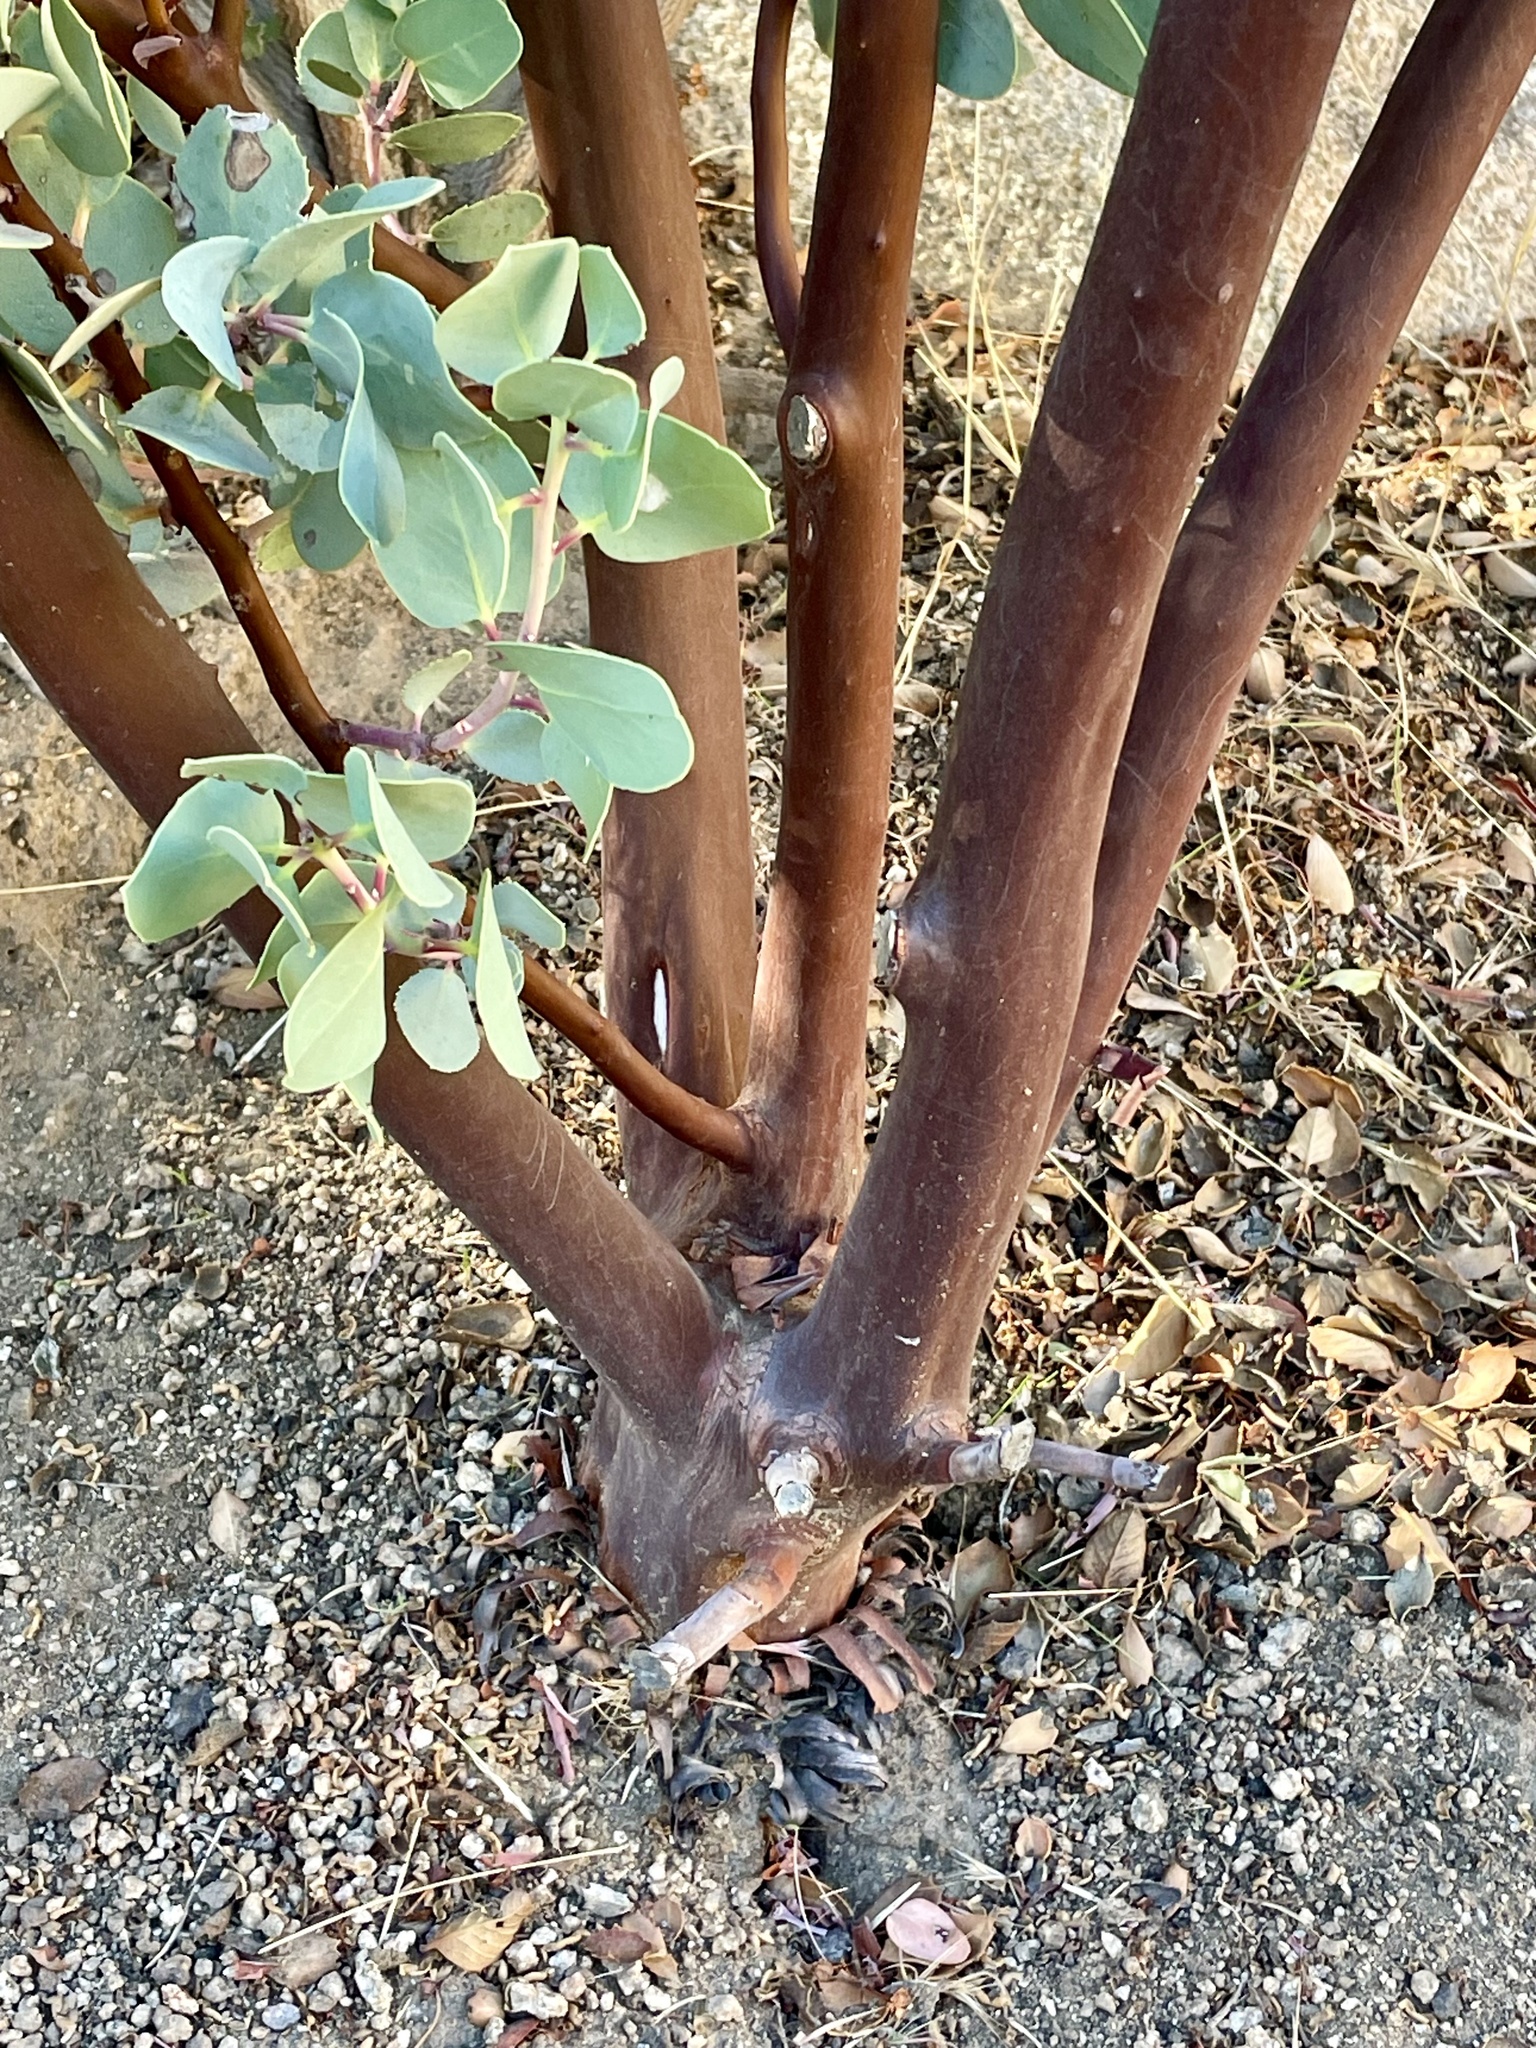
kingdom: Plantae
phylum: Tracheophyta
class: Magnoliopsida
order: Ericales
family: Ericaceae
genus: Arctostaphylos
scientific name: Arctostaphylos glauca
